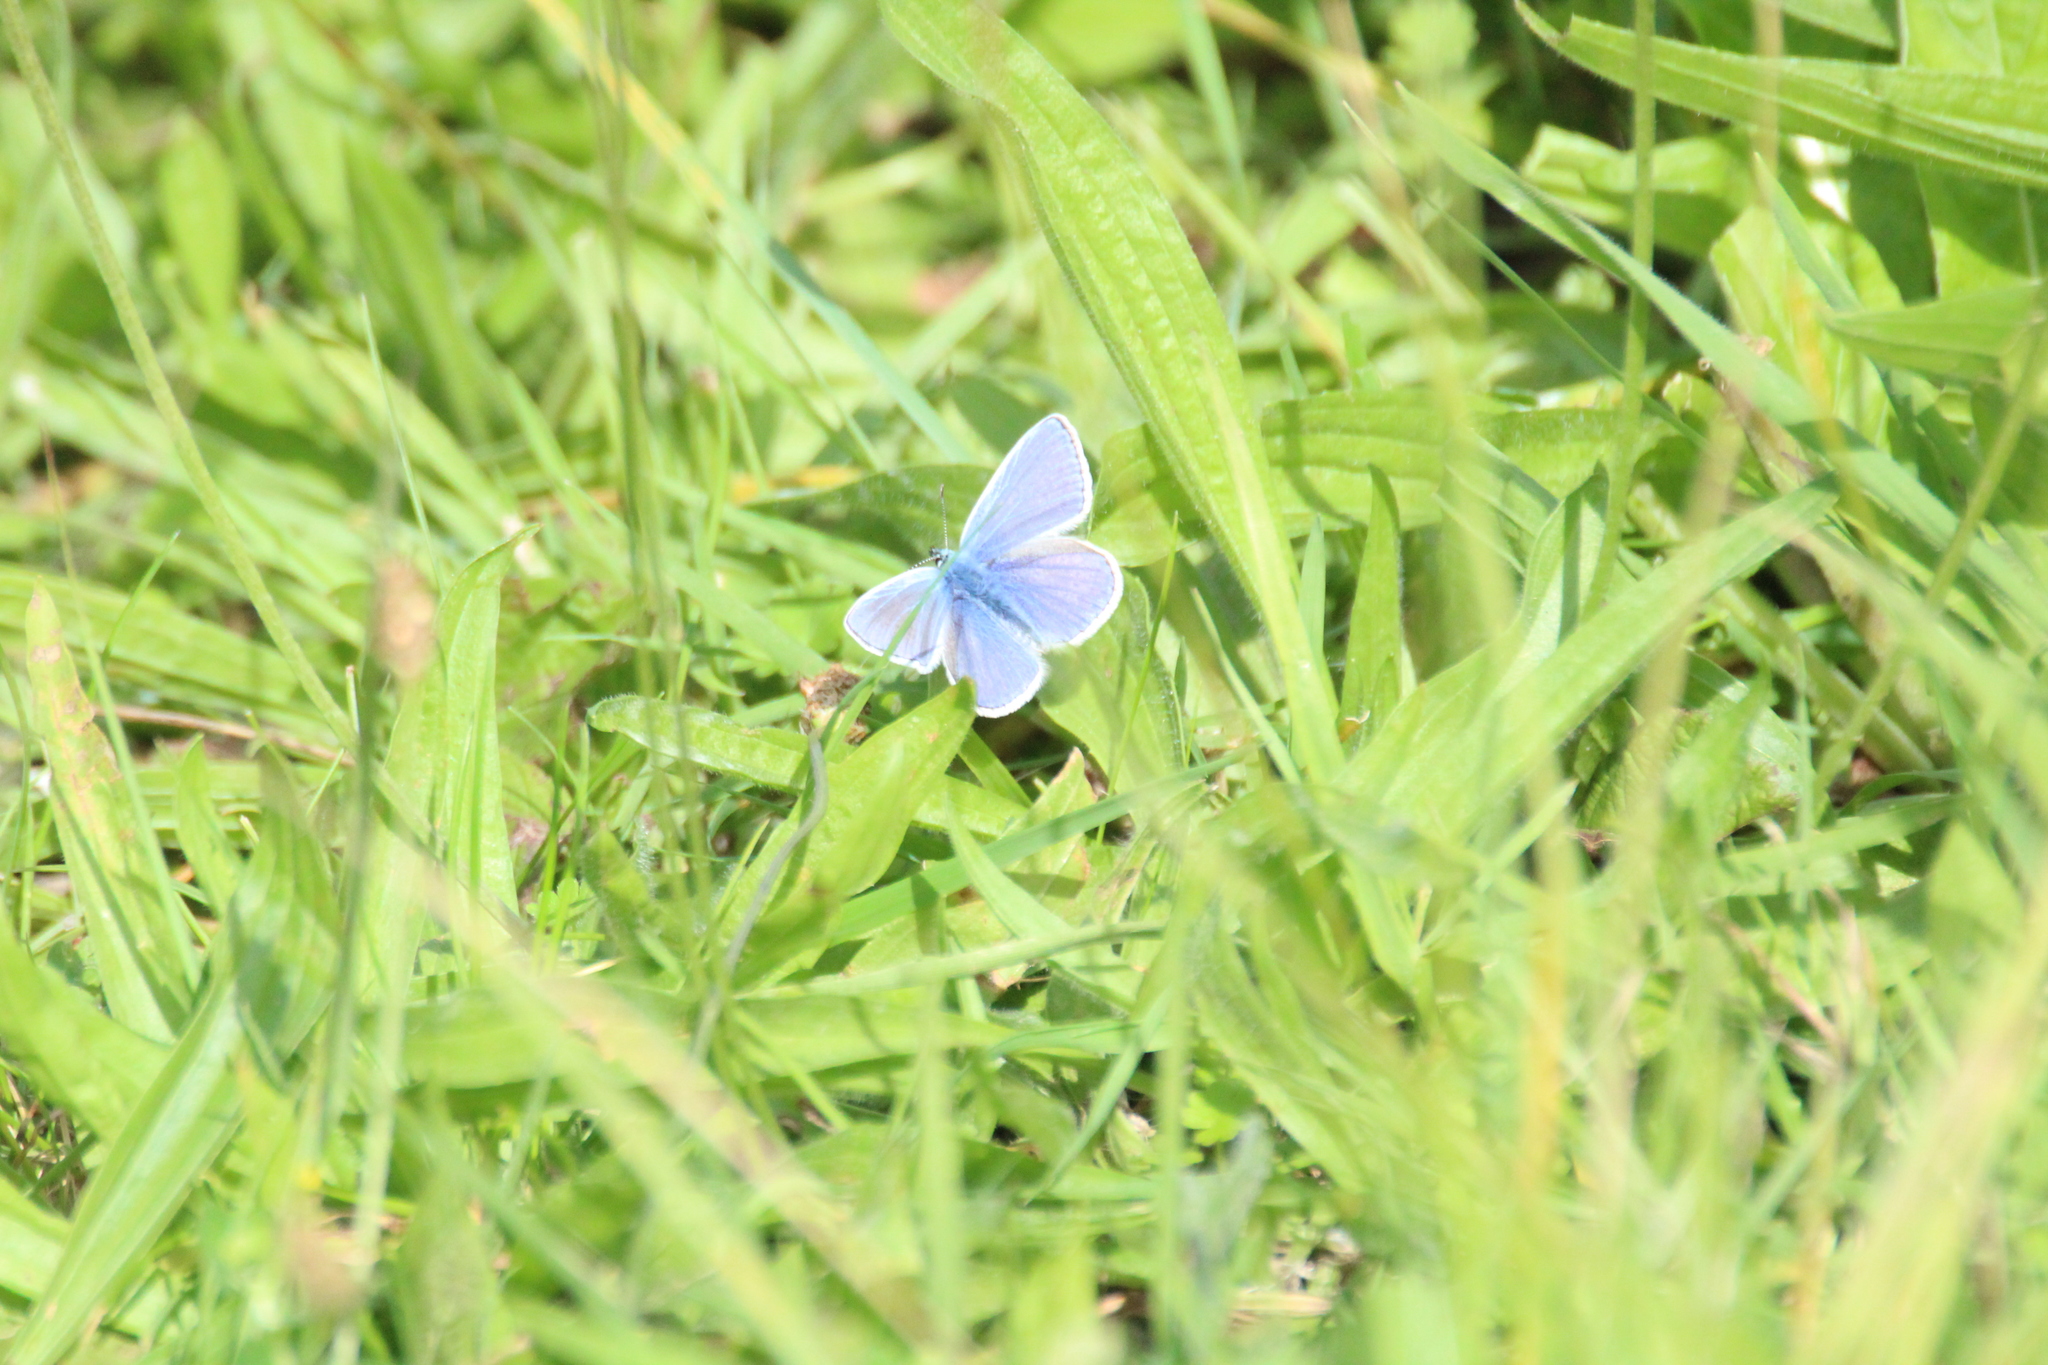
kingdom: Animalia
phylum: Arthropoda
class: Insecta
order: Lepidoptera
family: Lycaenidae
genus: Polyommatus
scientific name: Polyommatus icarus
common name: Common blue
